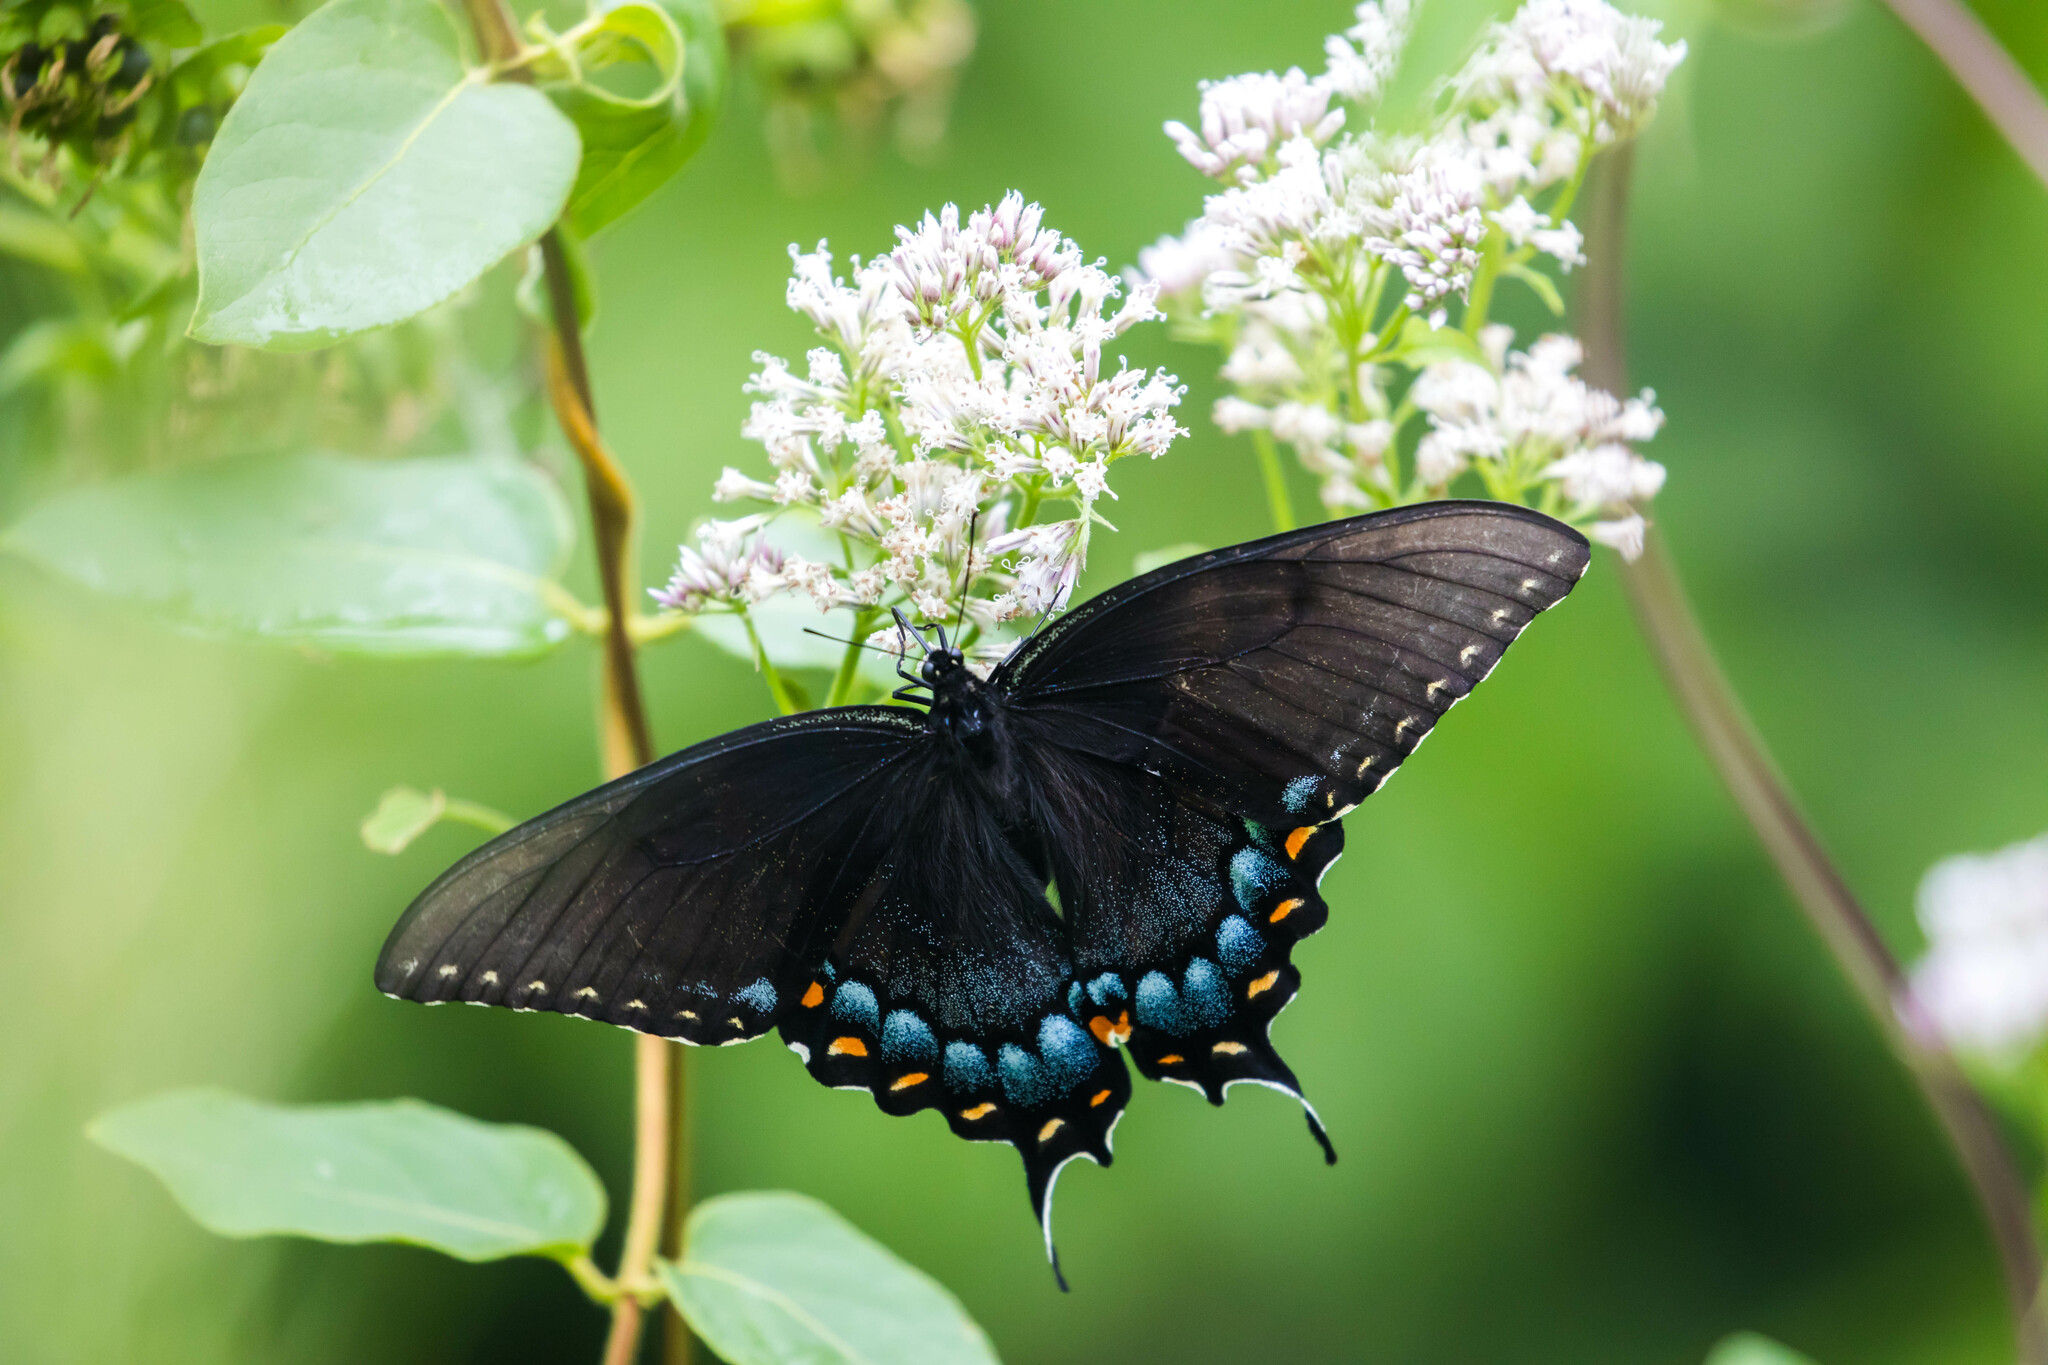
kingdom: Animalia
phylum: Arthropoda
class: Insecta
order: Lepidoptera
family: Papilionidae
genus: Papilio
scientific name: Papilio glaucus
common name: Tiger swallowtail
